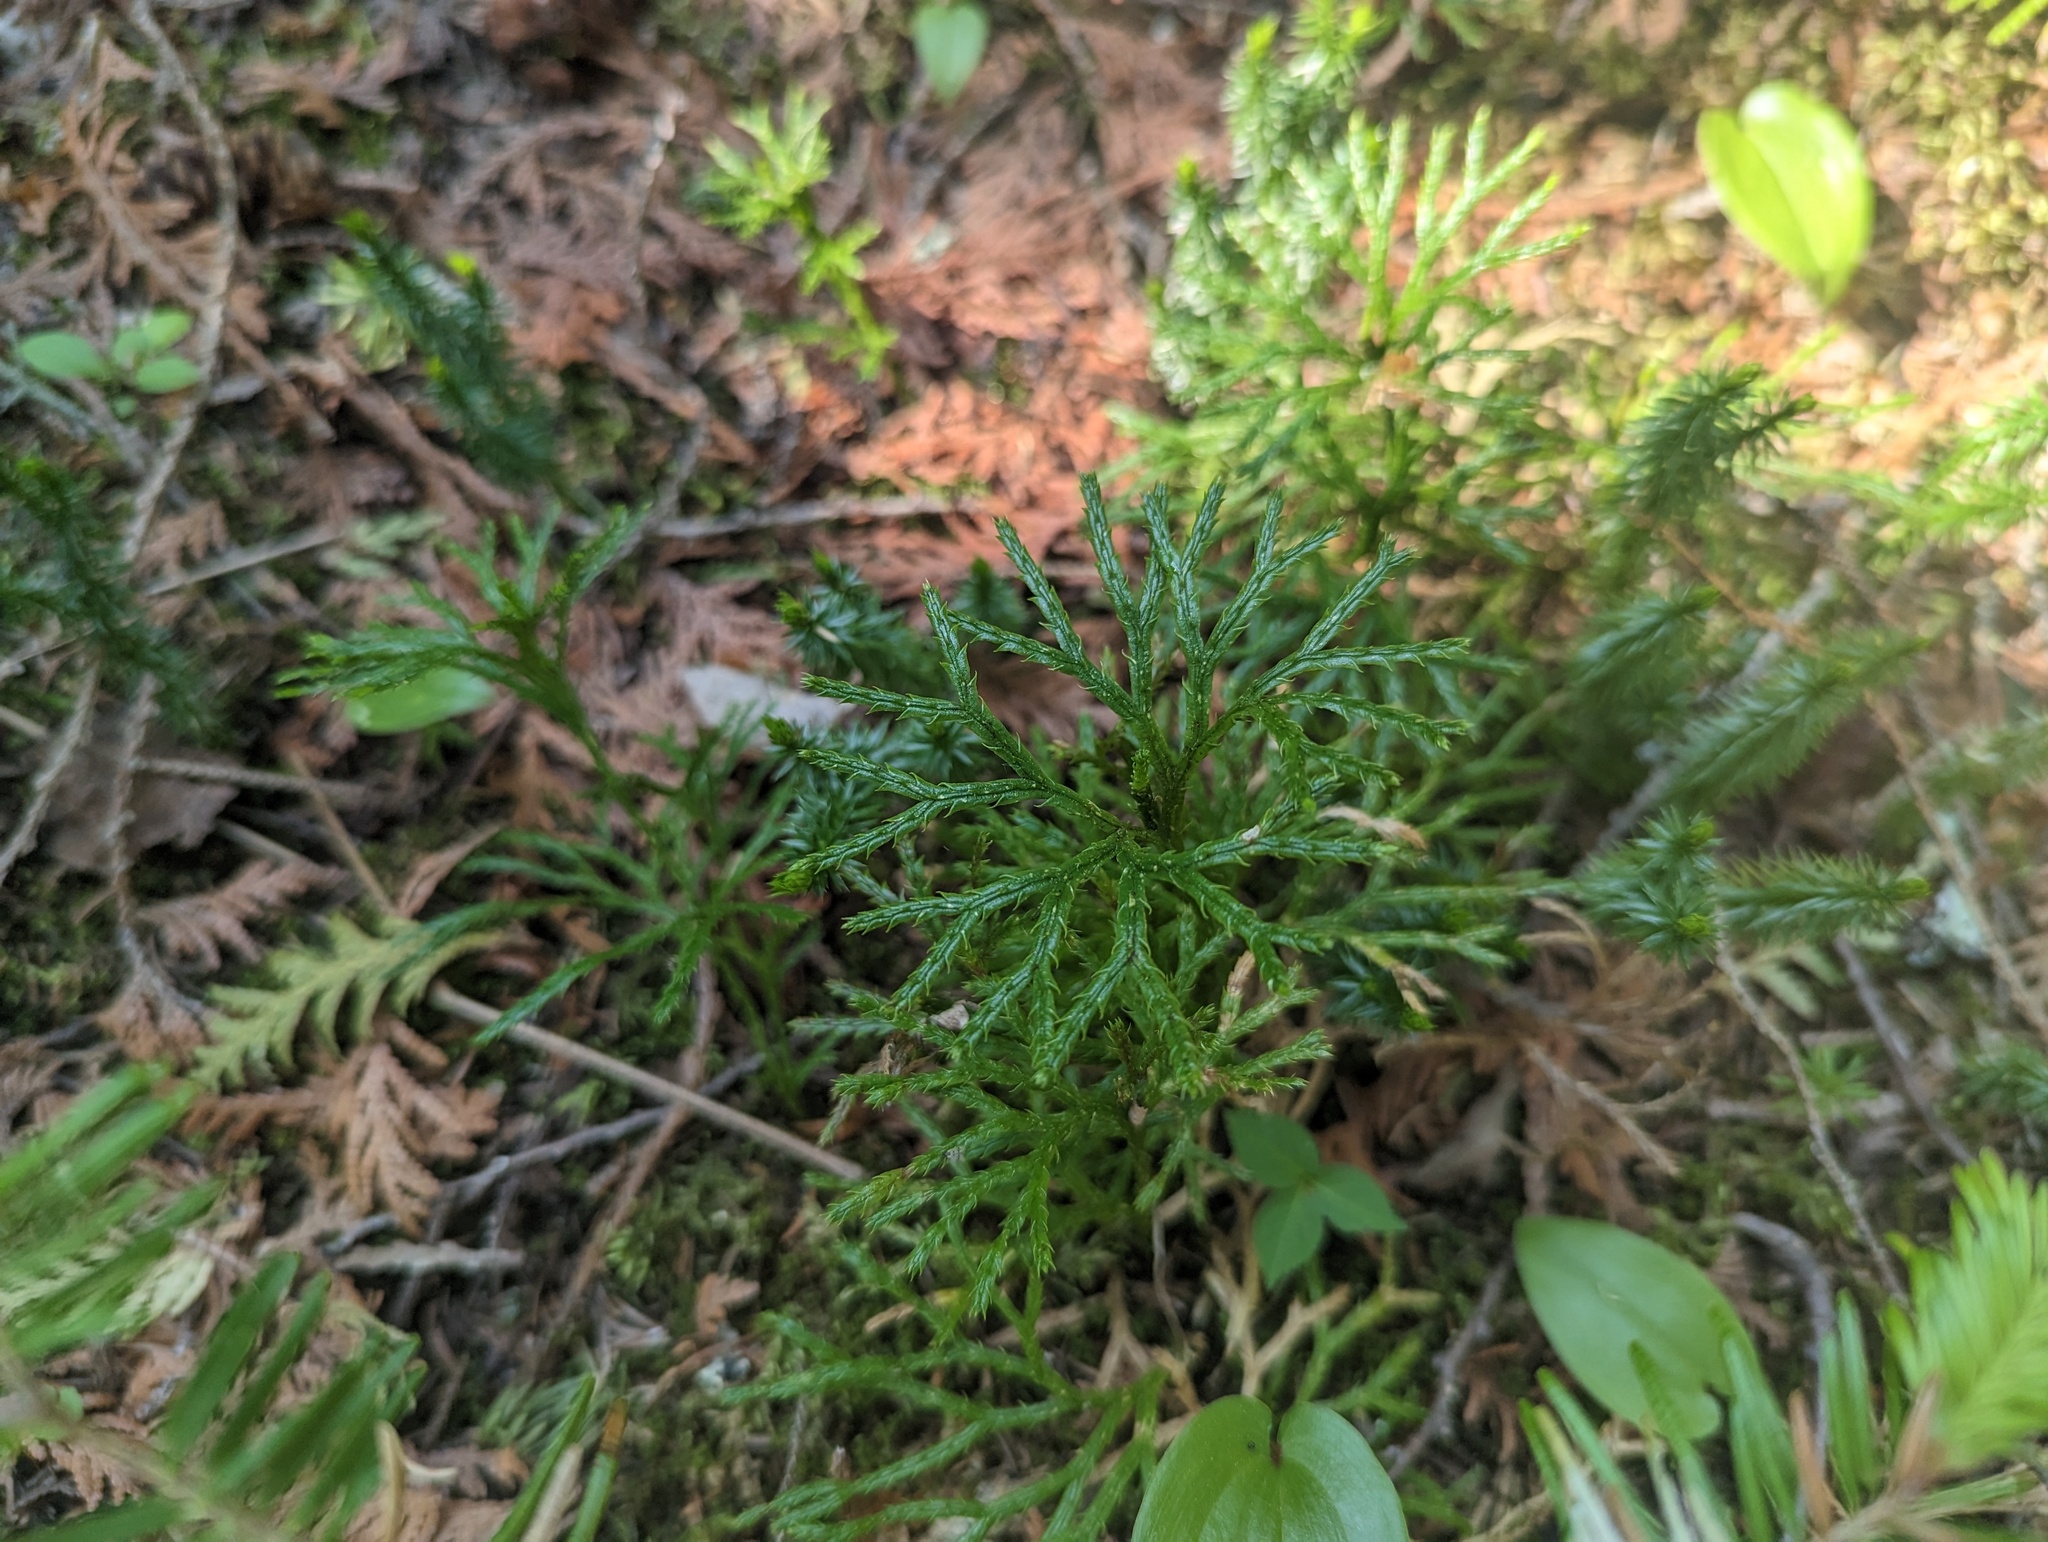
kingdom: Plantae
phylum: Tracheophyta
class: Lycopodiopsida
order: Lycopodiales
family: Lycopodiaceae
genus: Diphasiastrum
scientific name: Diphasiastrum digitatum
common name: Southern running-pine
